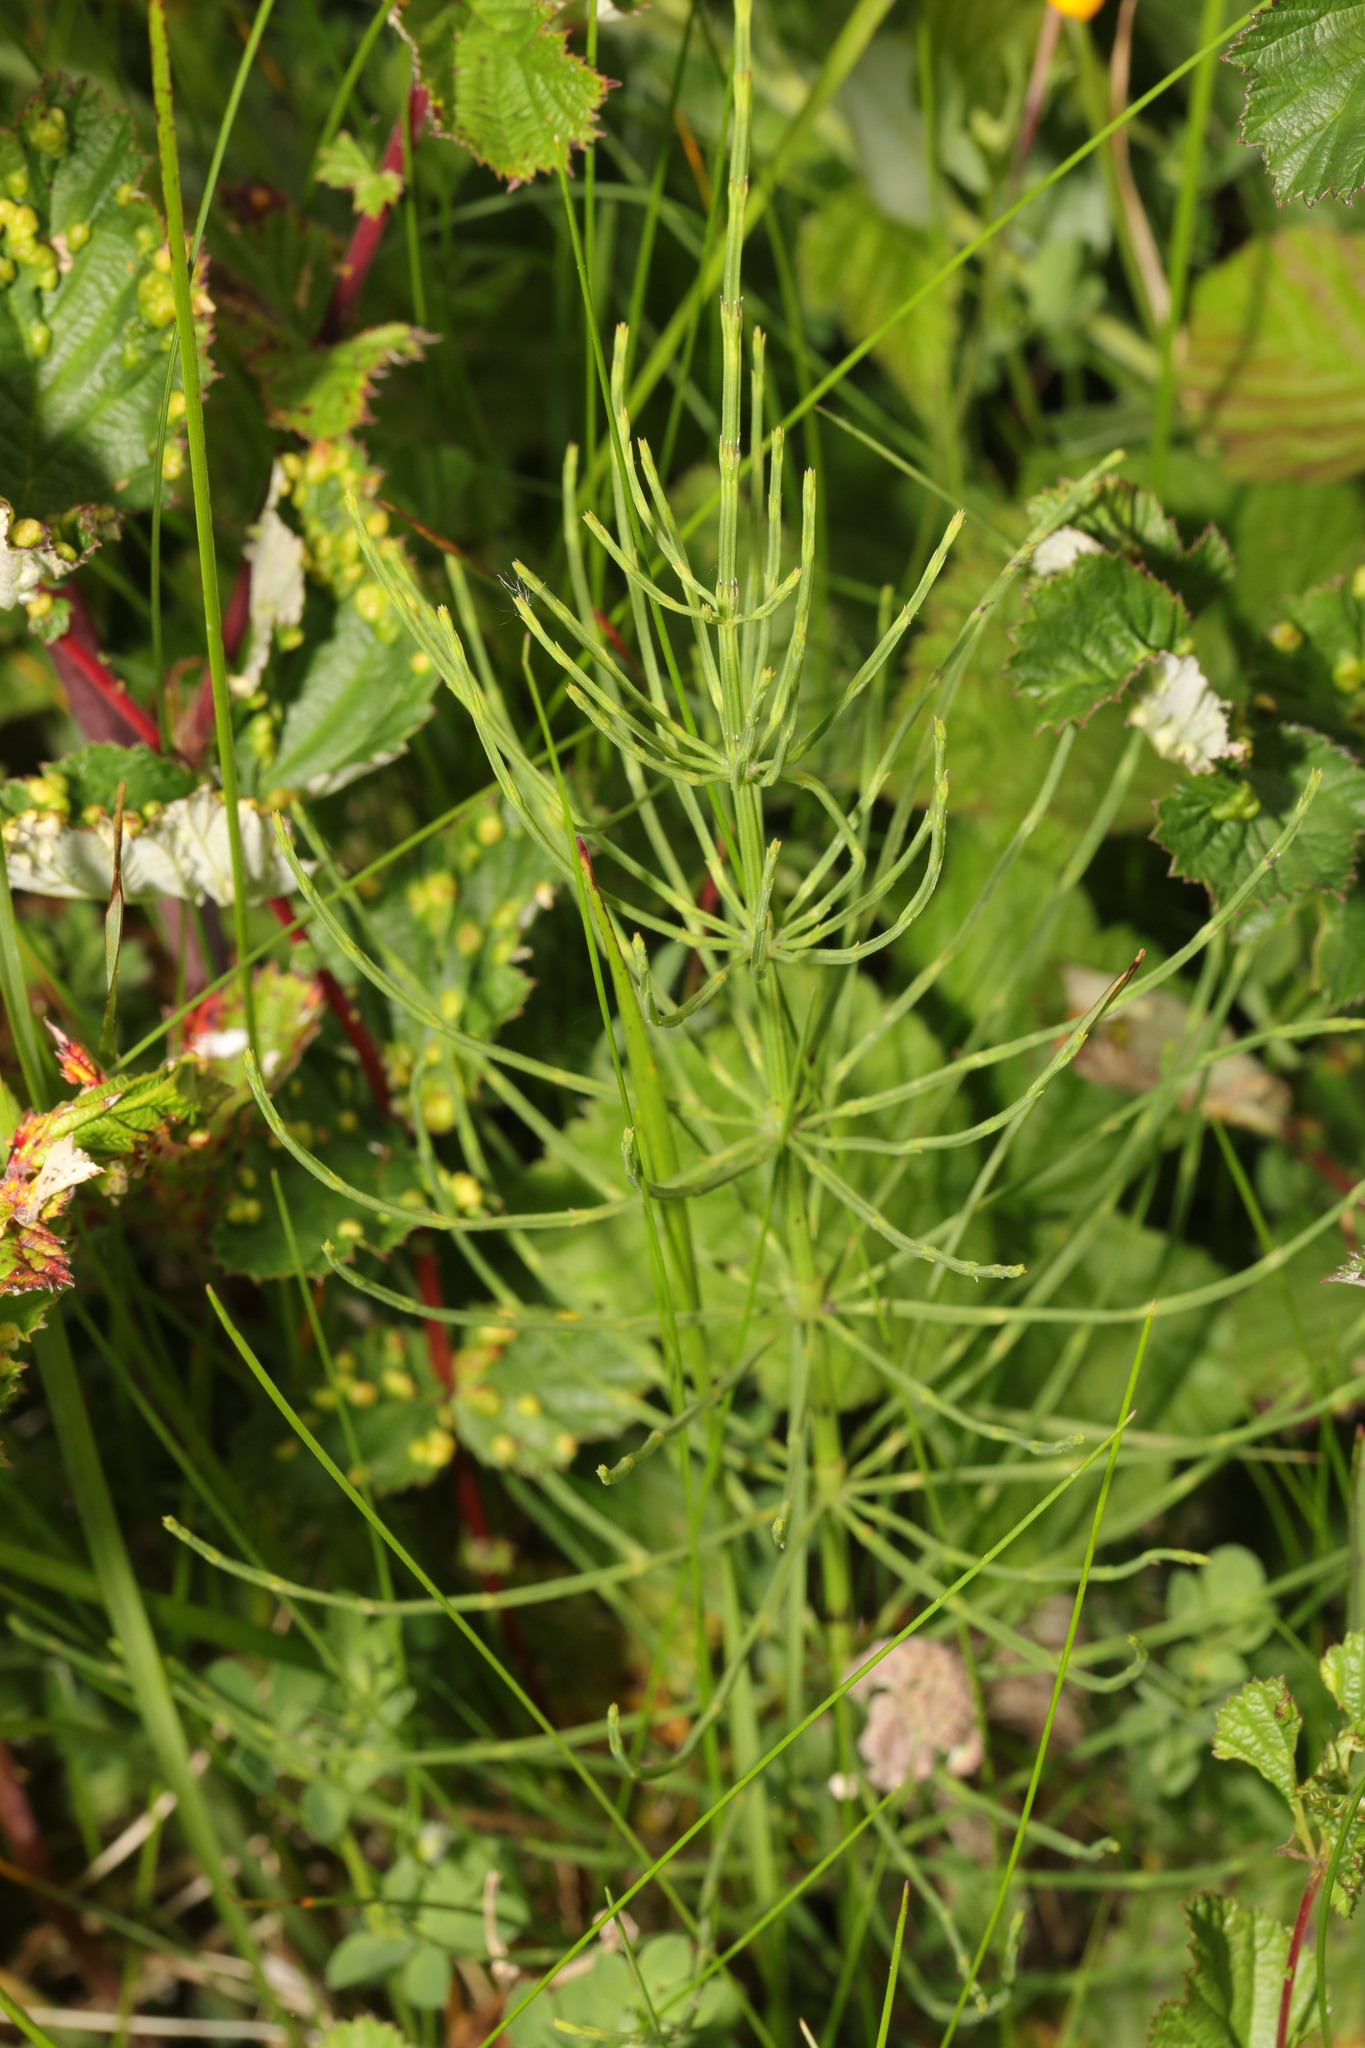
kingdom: Plantae
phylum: Tracheophyta
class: Polypodiopsida
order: Equisetales
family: Equisetaceae
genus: Equisetum
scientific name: Equisetum arvense
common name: Field horsetail
